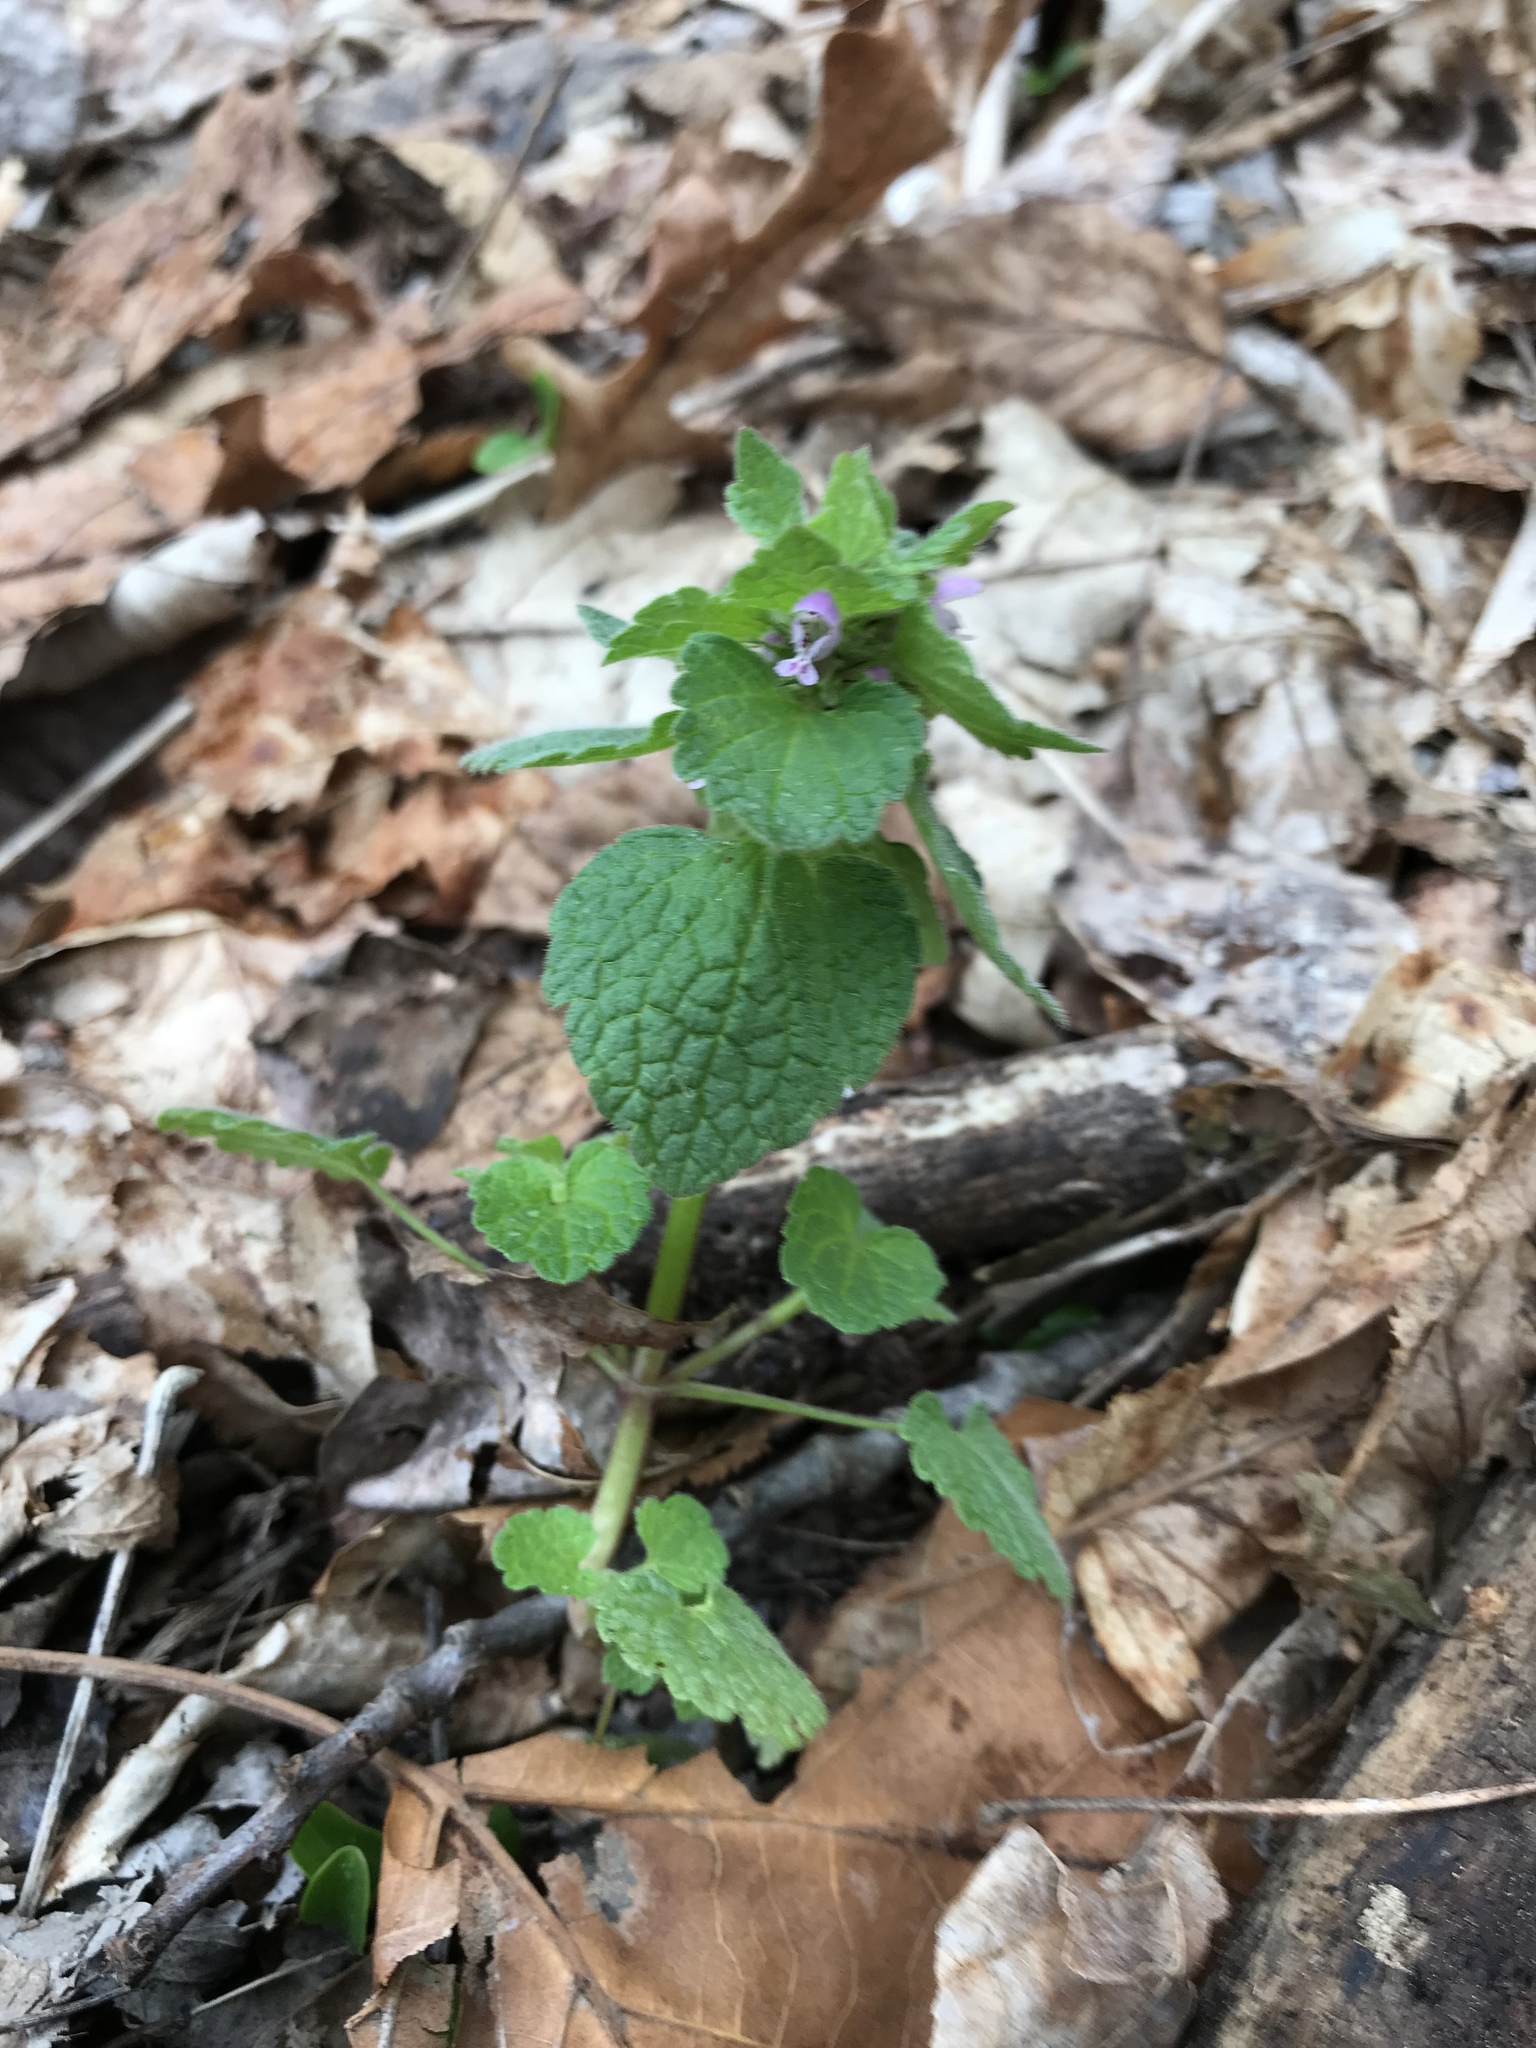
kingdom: Plantae
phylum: Tracheophyta
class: Magnoliopsida
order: Lamiales
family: Lamiaceae
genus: Lamium
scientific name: Lamium purpureum
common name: Red dead-nettle
